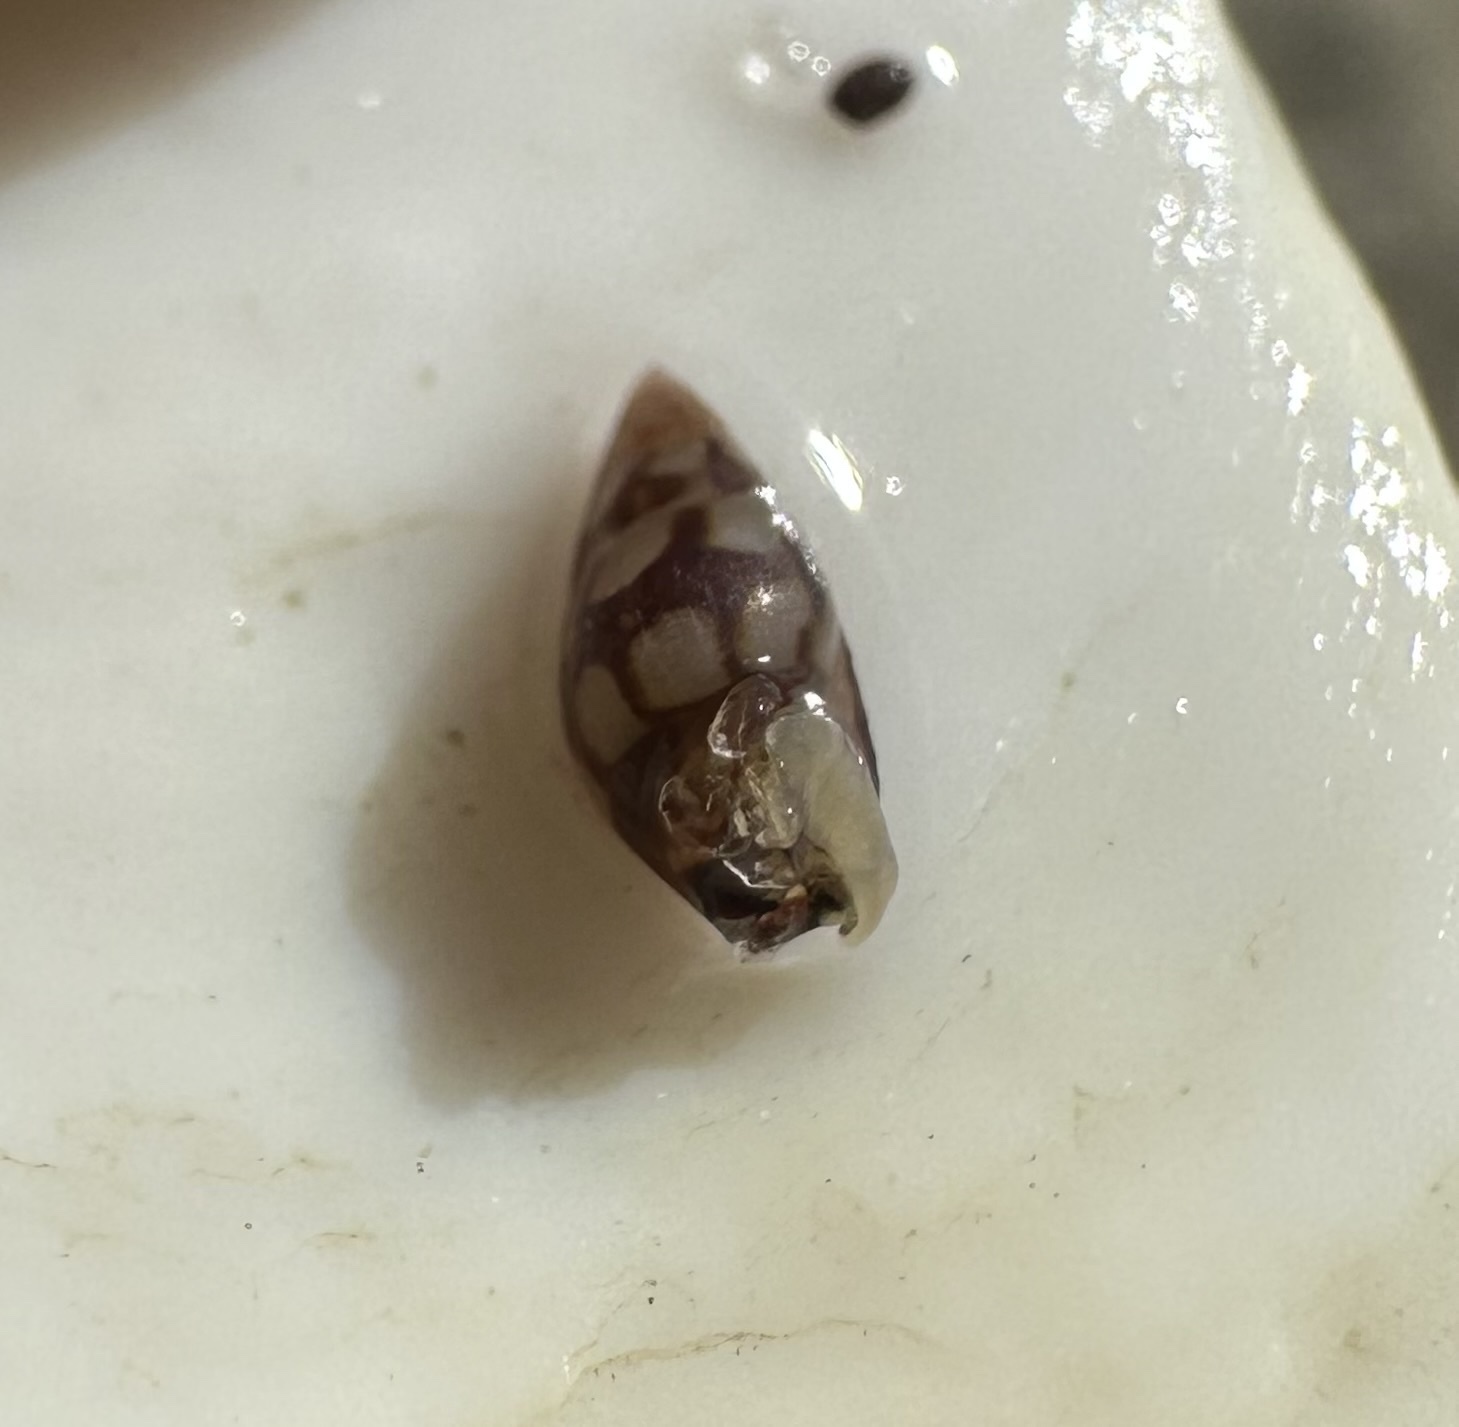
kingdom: Animalia
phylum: Mollusca
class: Gastropoda
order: Neogastropoda
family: Columbellidae
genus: Astyris
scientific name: Astyris lunata
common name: Lunar dovesnail
